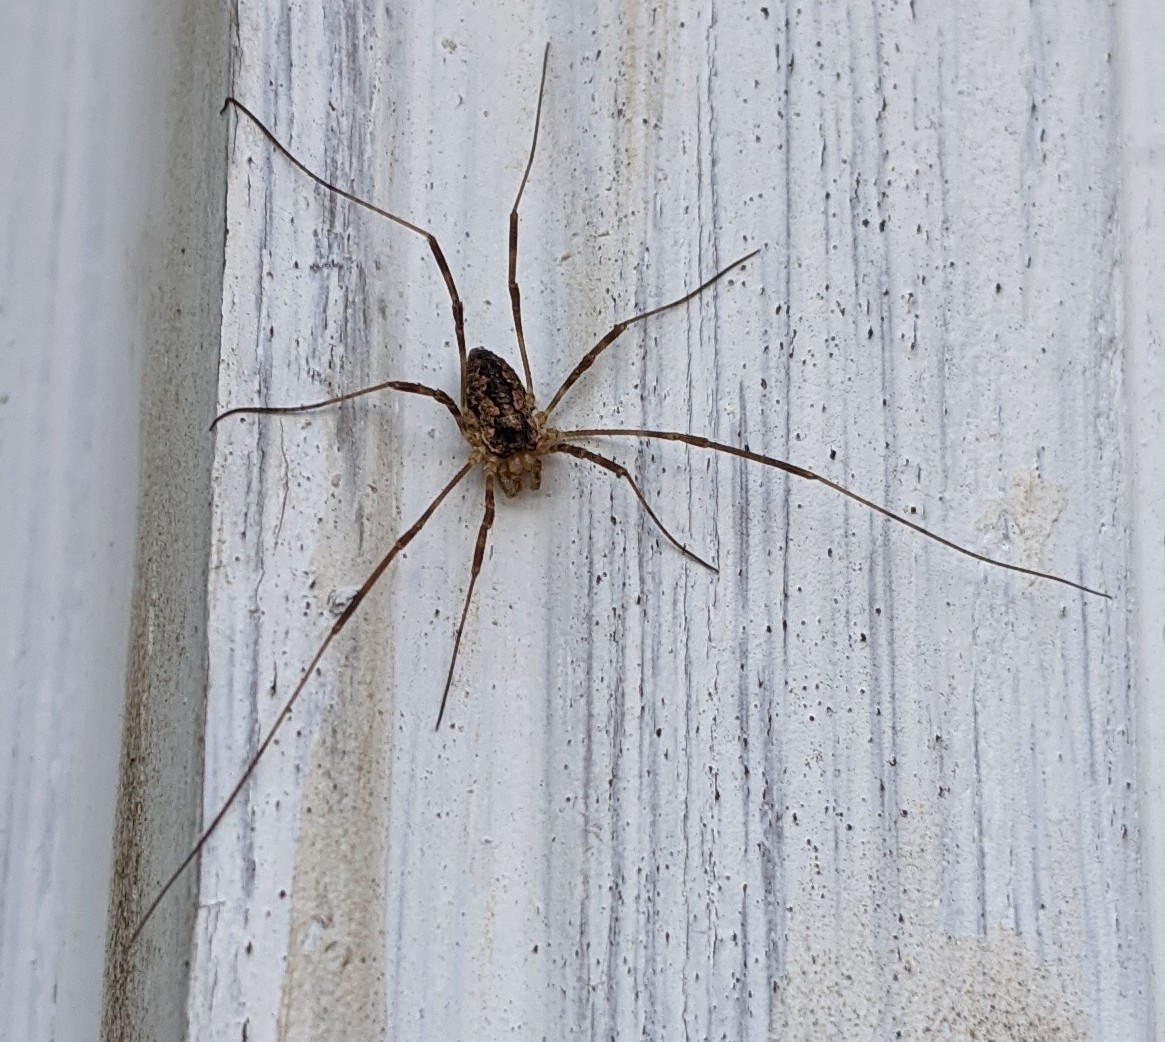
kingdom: Animalia
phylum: Arthropoda
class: Arachnida
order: Opiliones
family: Phalangiidae
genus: Odiellus
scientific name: Odiellus pictus
